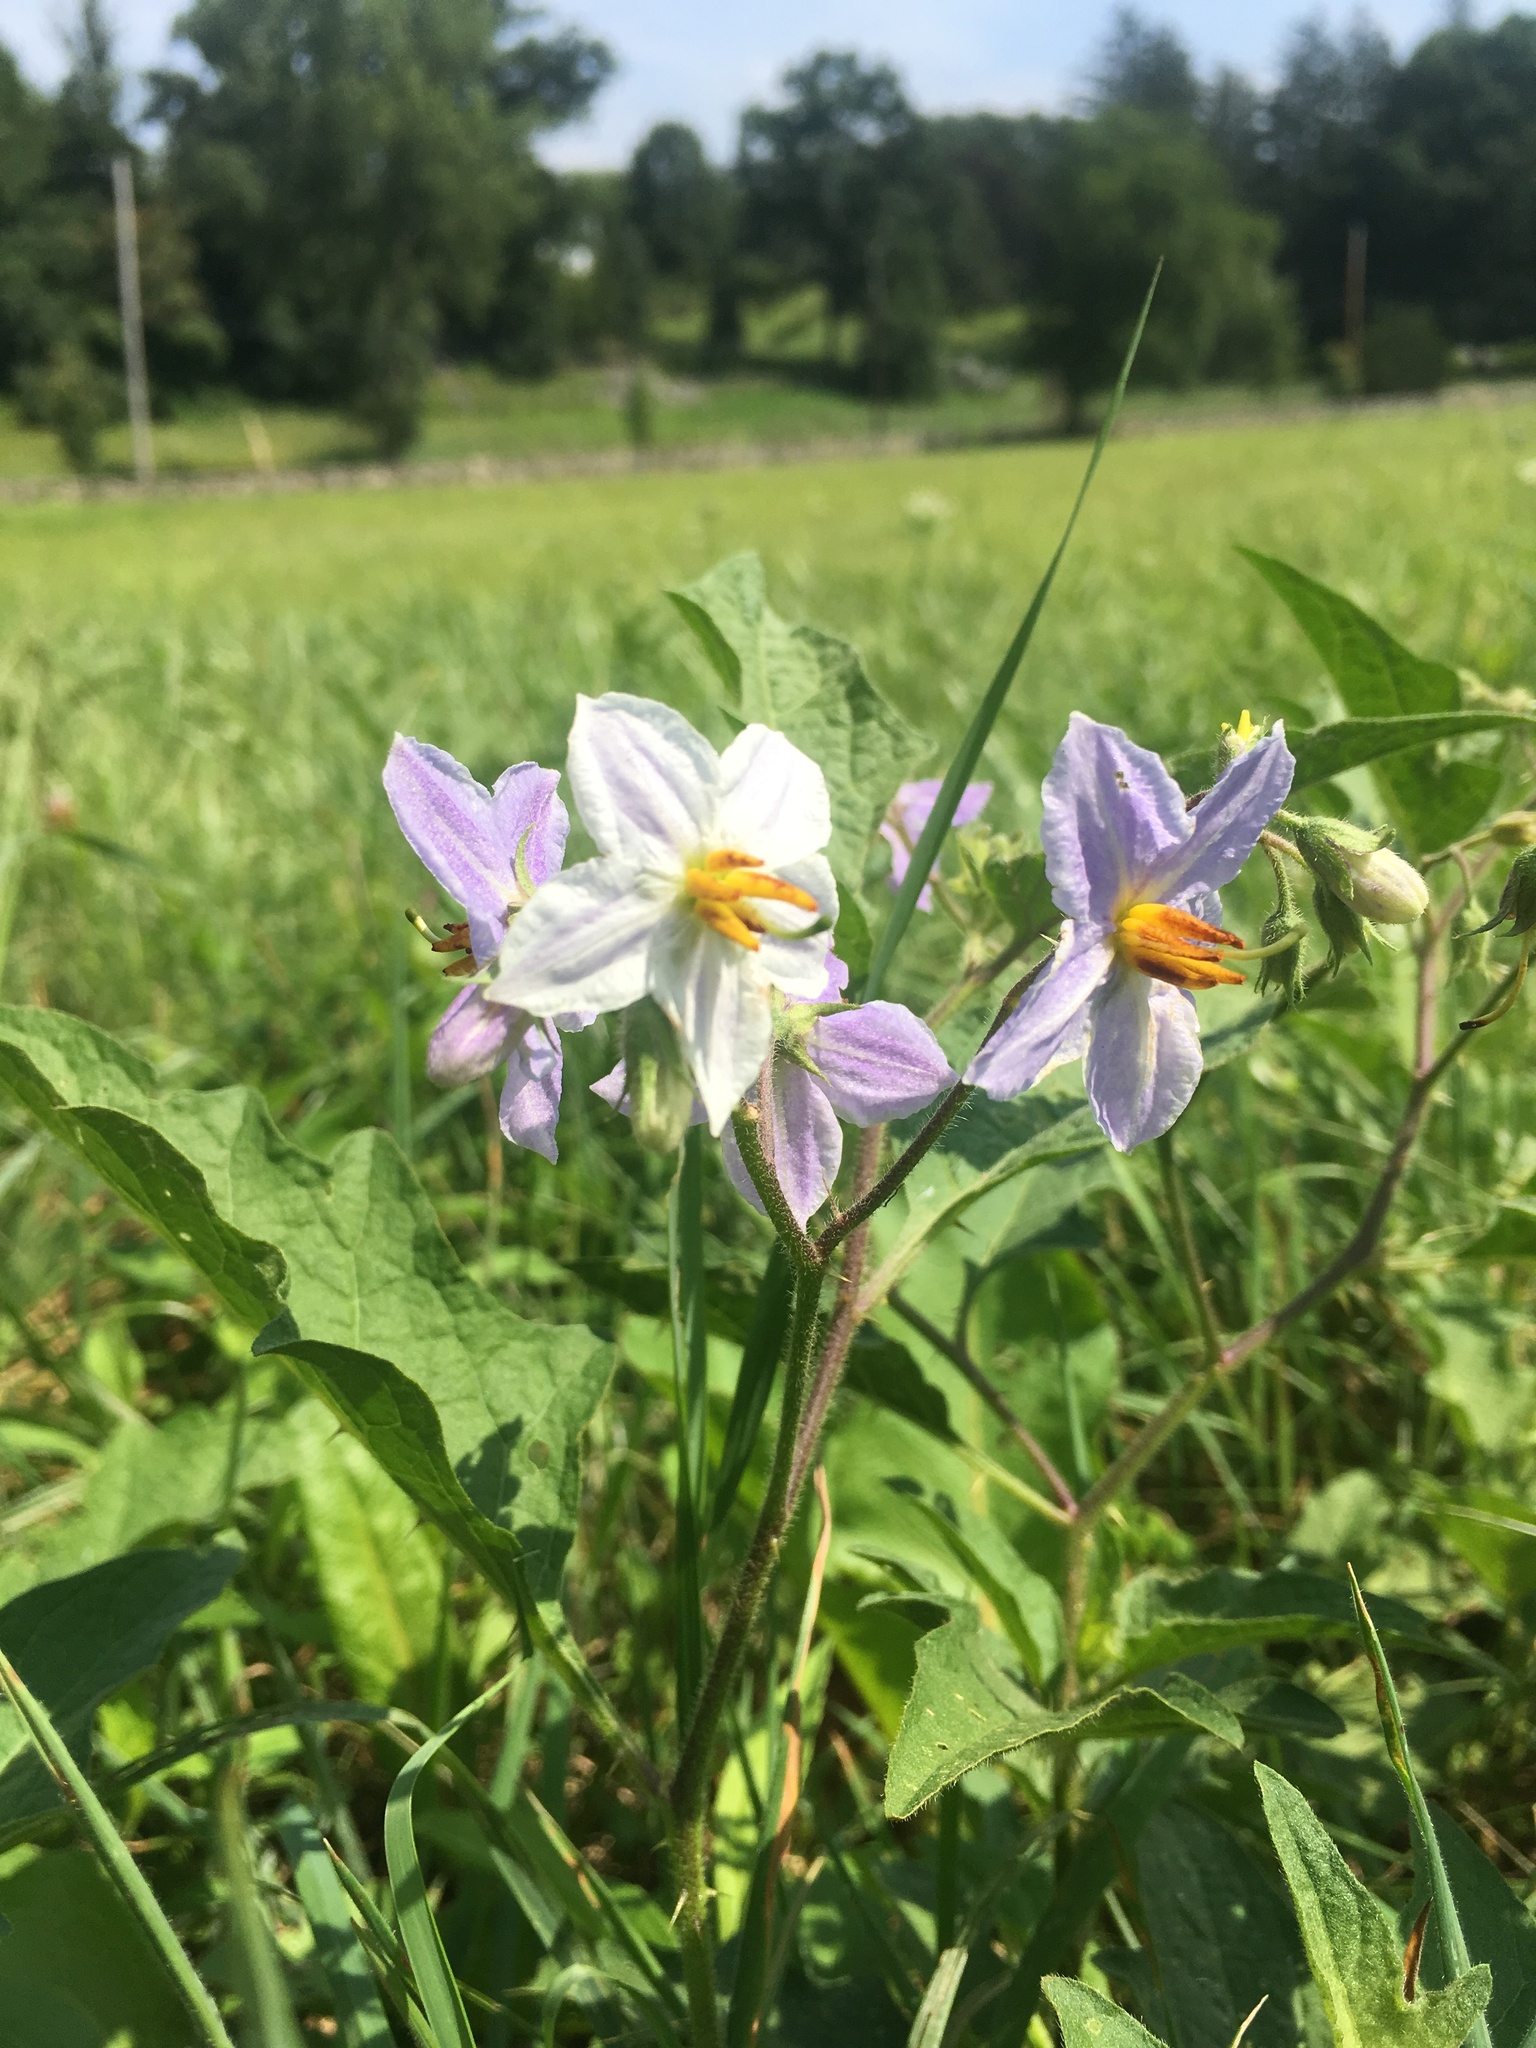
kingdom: Plantae
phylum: Tracheophyta
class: Magnoliopsida
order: Solanales
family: Solanaceae
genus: Solanum
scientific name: Solanum carolinense
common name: Horse-nettle
